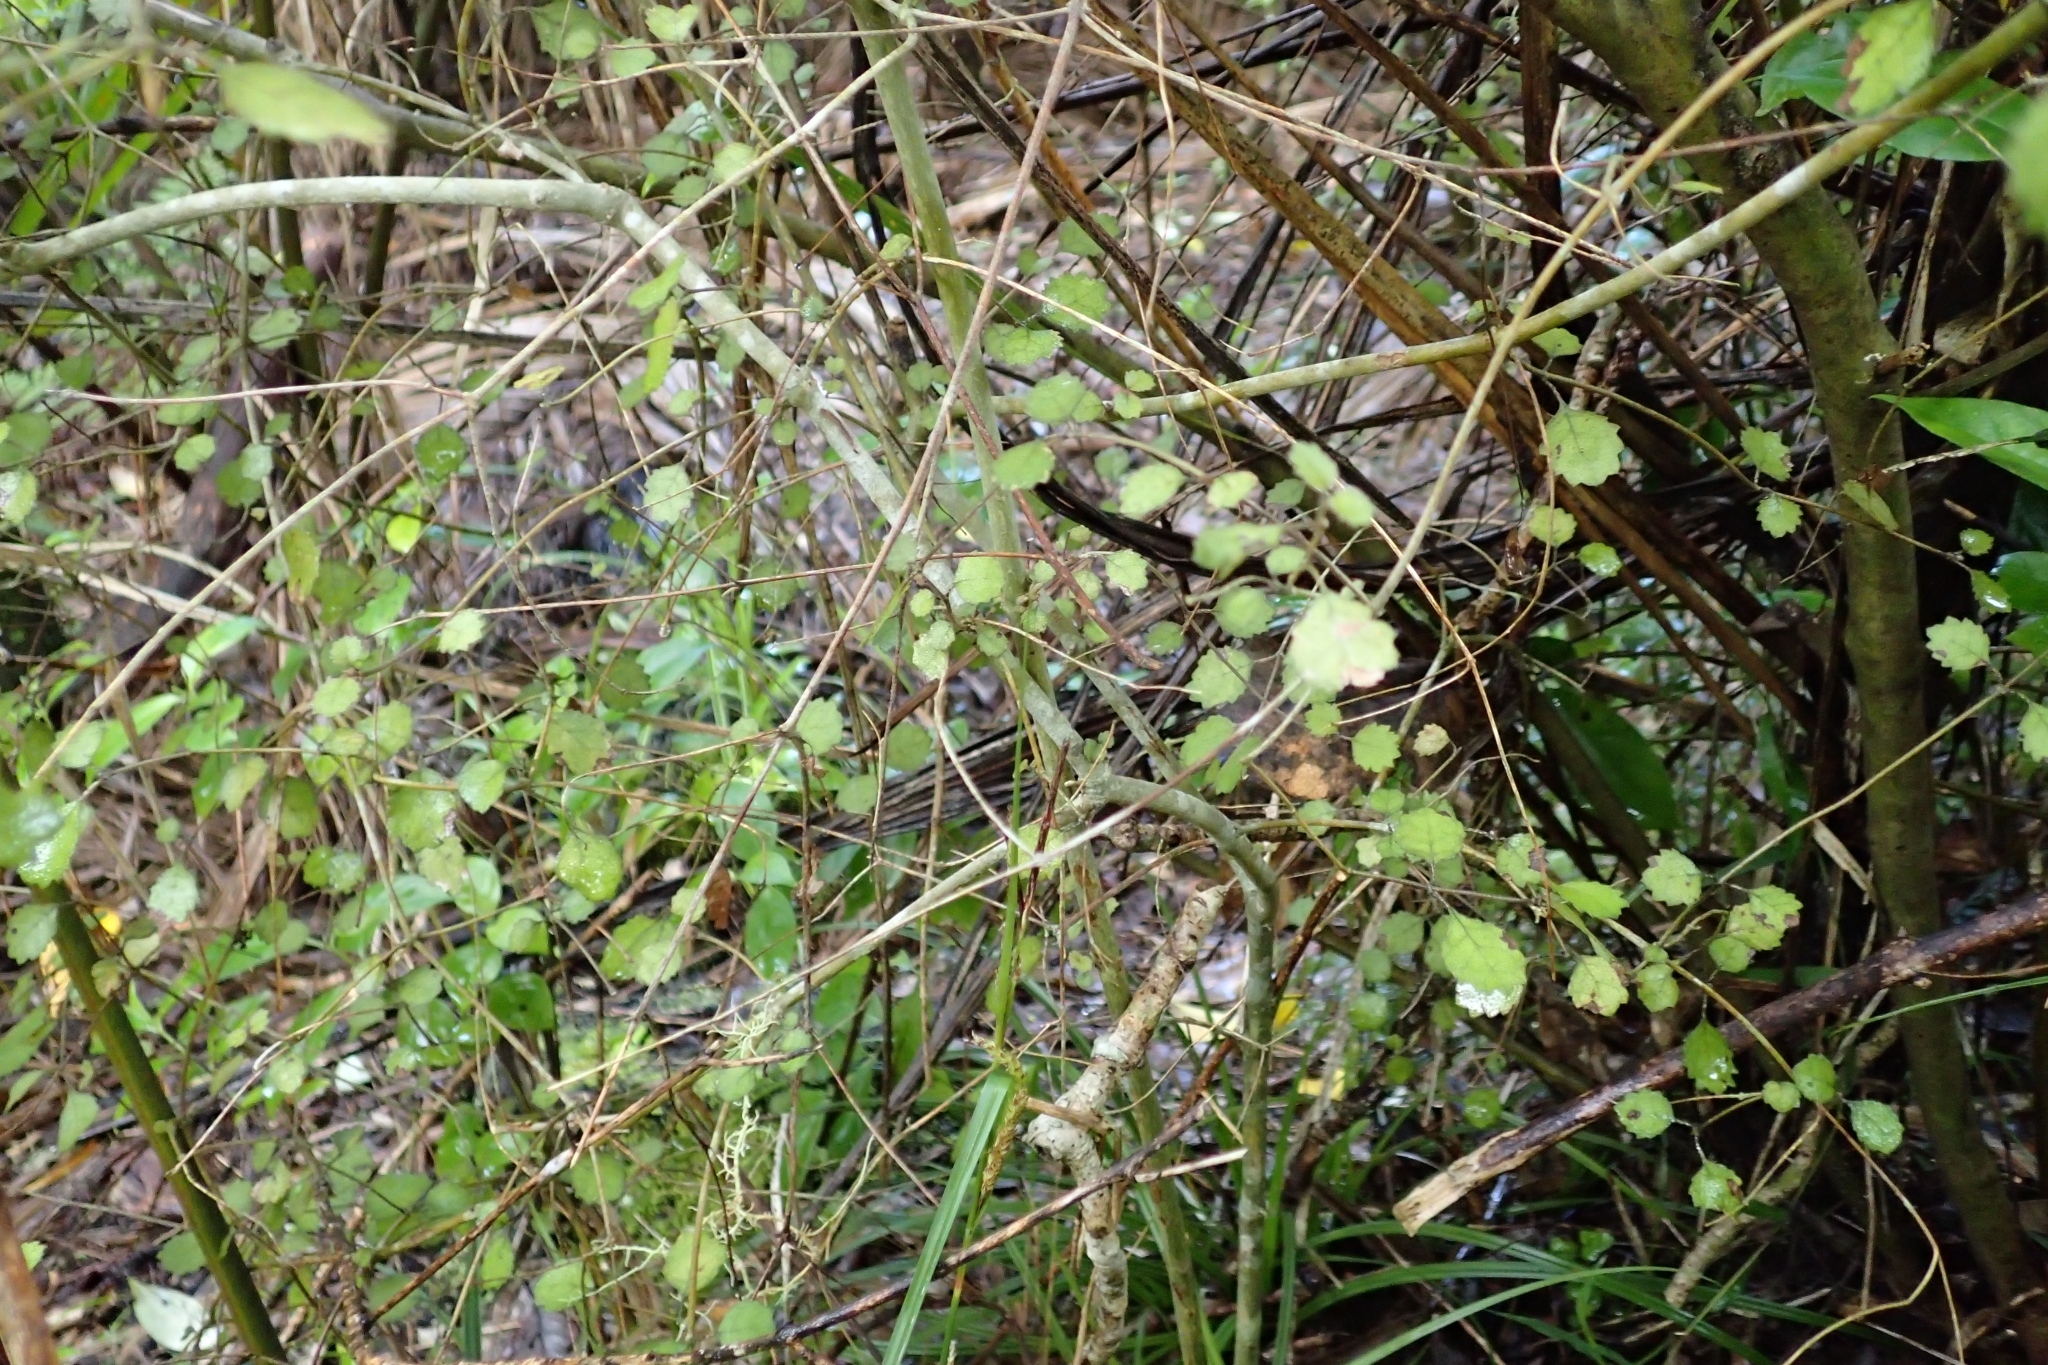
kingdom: Plantae
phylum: Tracheophyta
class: Magnoliopsida
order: Lamiales
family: Gesneriaceae
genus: Rhabdothamnus
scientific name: Rhabdothamnus solandri
